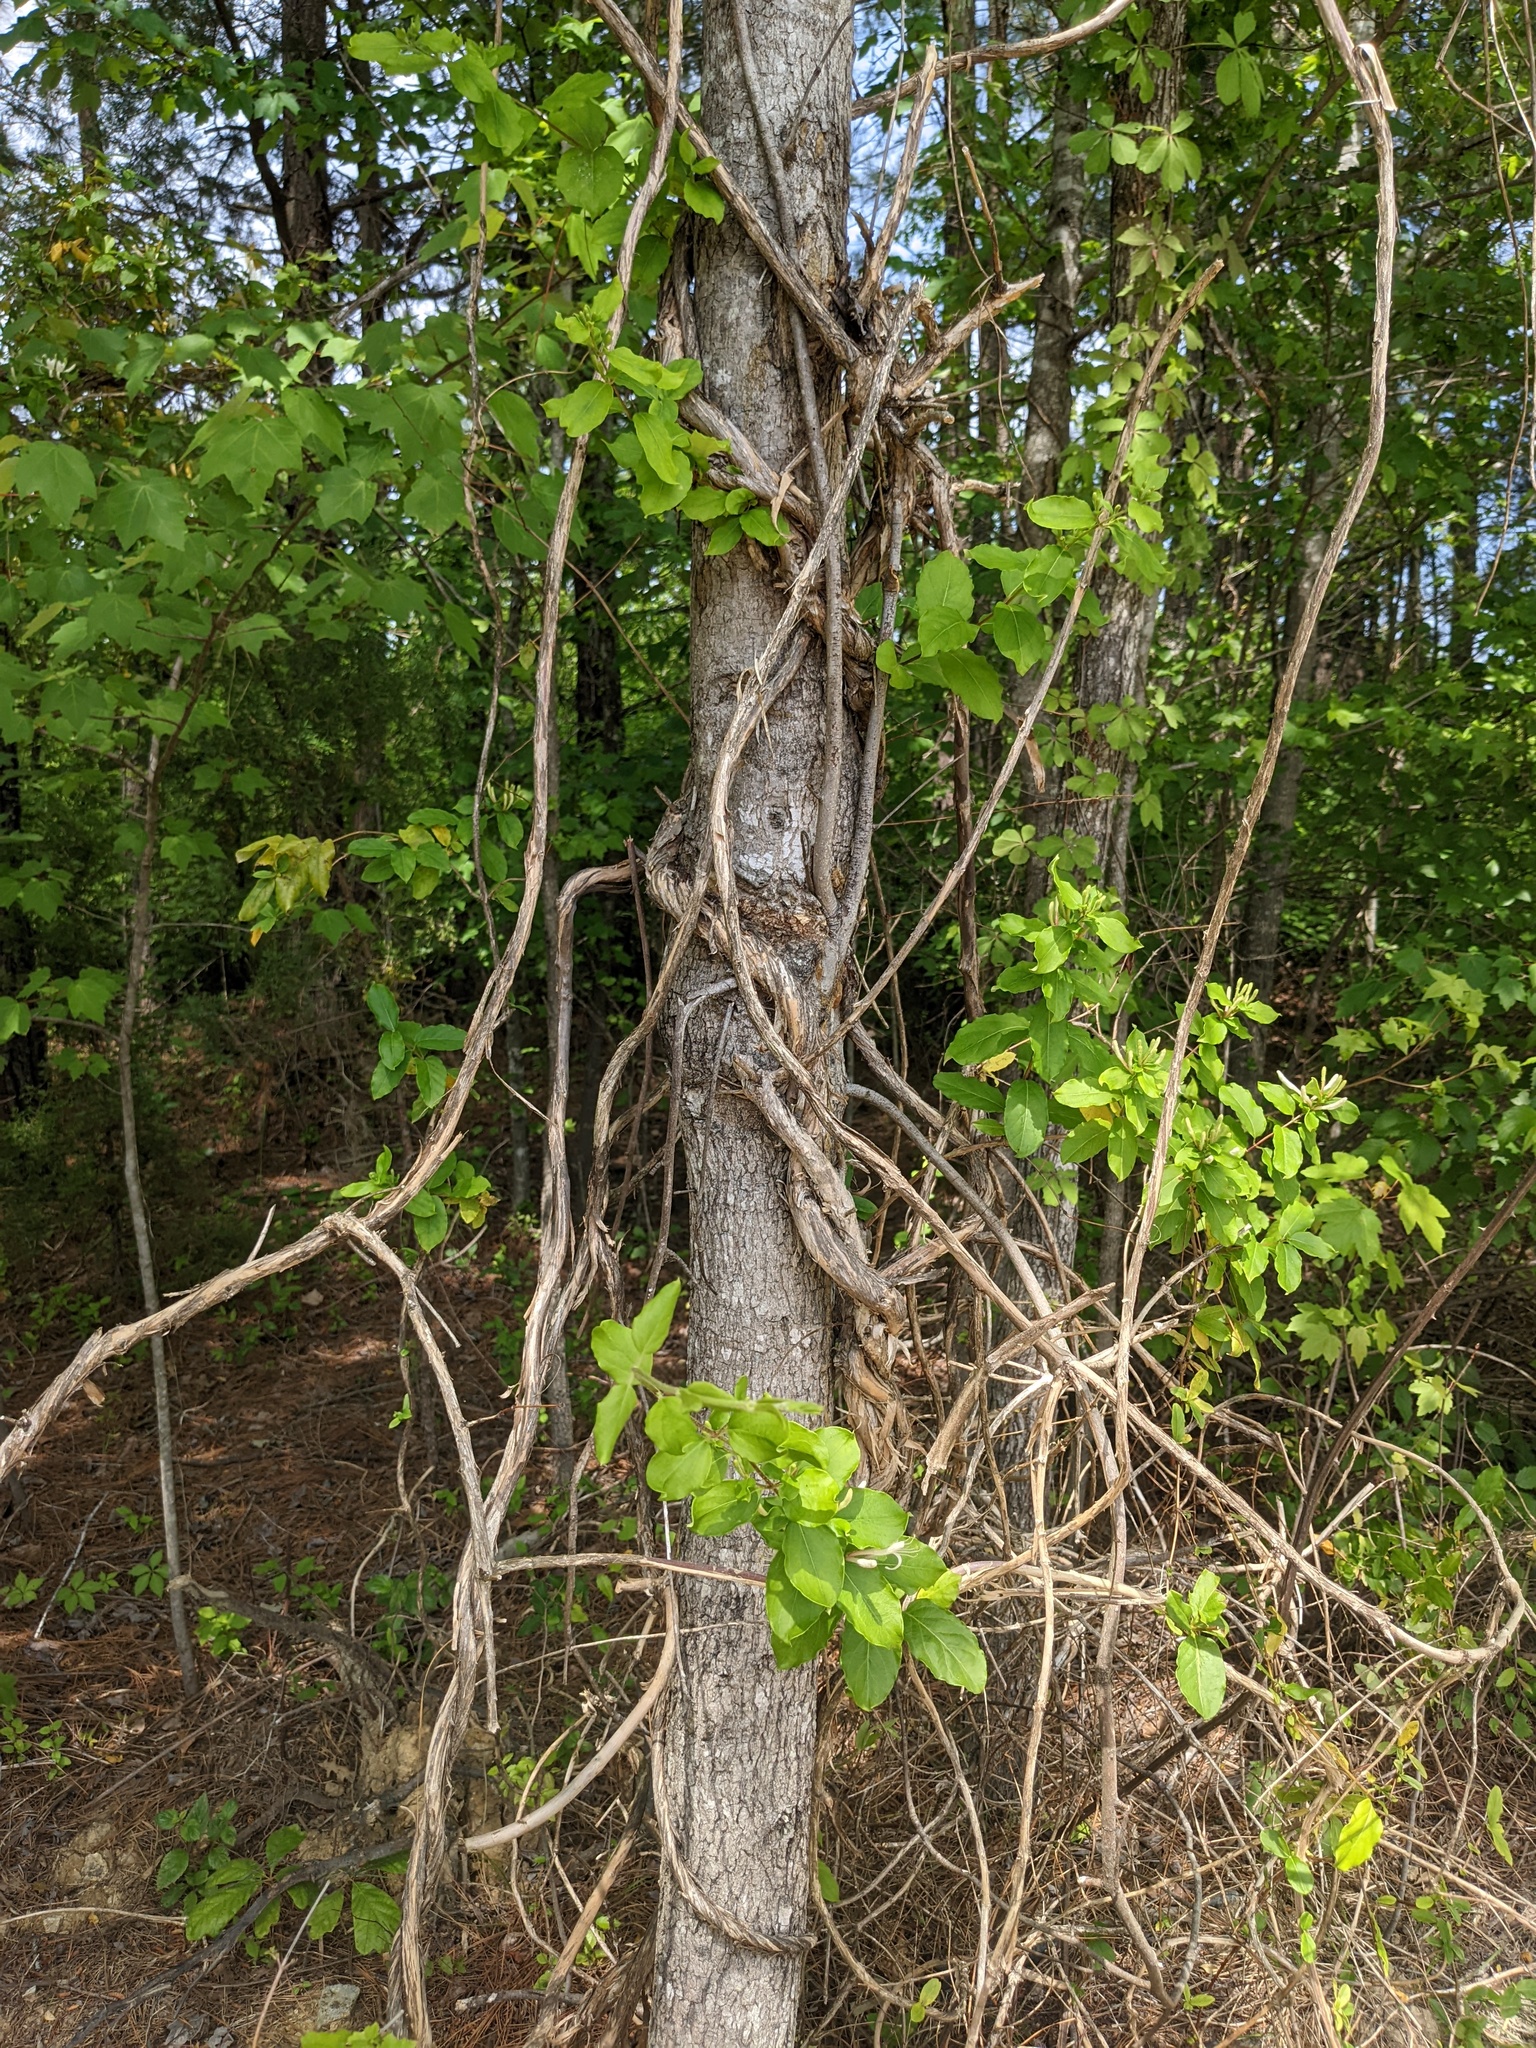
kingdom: Plantae
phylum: Tracheophyta
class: Magnoliopsida
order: Dipsacales
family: Caprifoliaceae
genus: Lonicera
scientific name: Lonicera japonica
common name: Japanese honeysuckle
